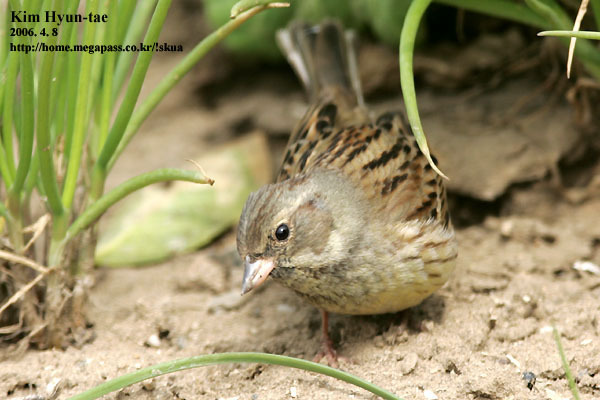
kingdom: Animalia
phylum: Chordata
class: Aves
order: Passeriformes
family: Emberizidae
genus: Emberiza
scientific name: Emberiza spodocephala
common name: Black-faced bunting
